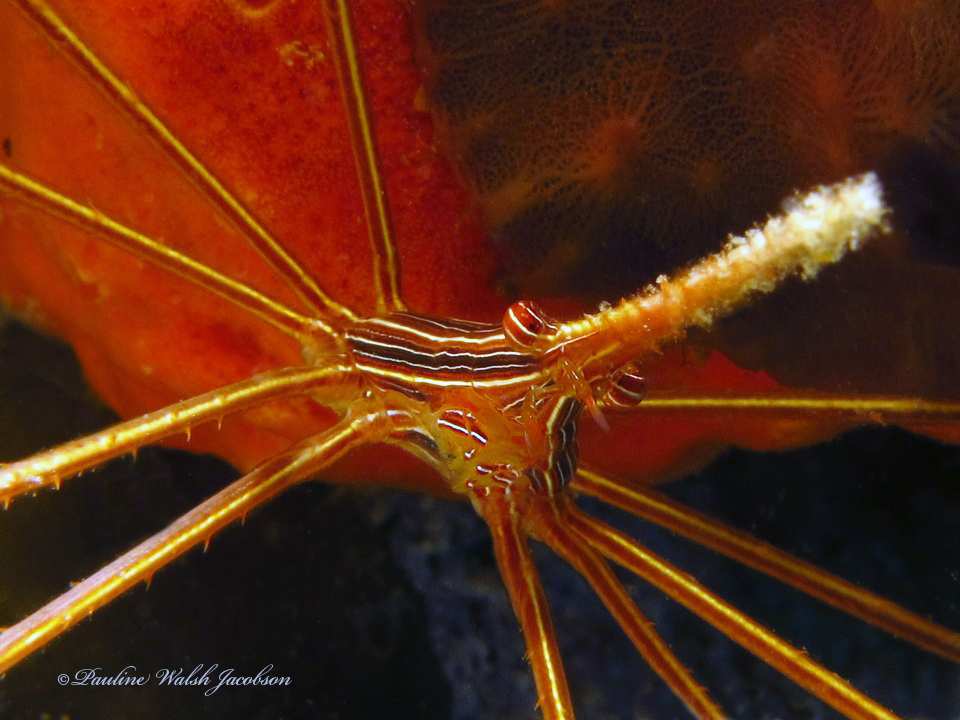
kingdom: Animalia
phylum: Arthropoda
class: Malacostraca
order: Decapoda
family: Inachoididae
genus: Stenorhynchus
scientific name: Stenorhynchus seticornis
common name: Arrow crab
